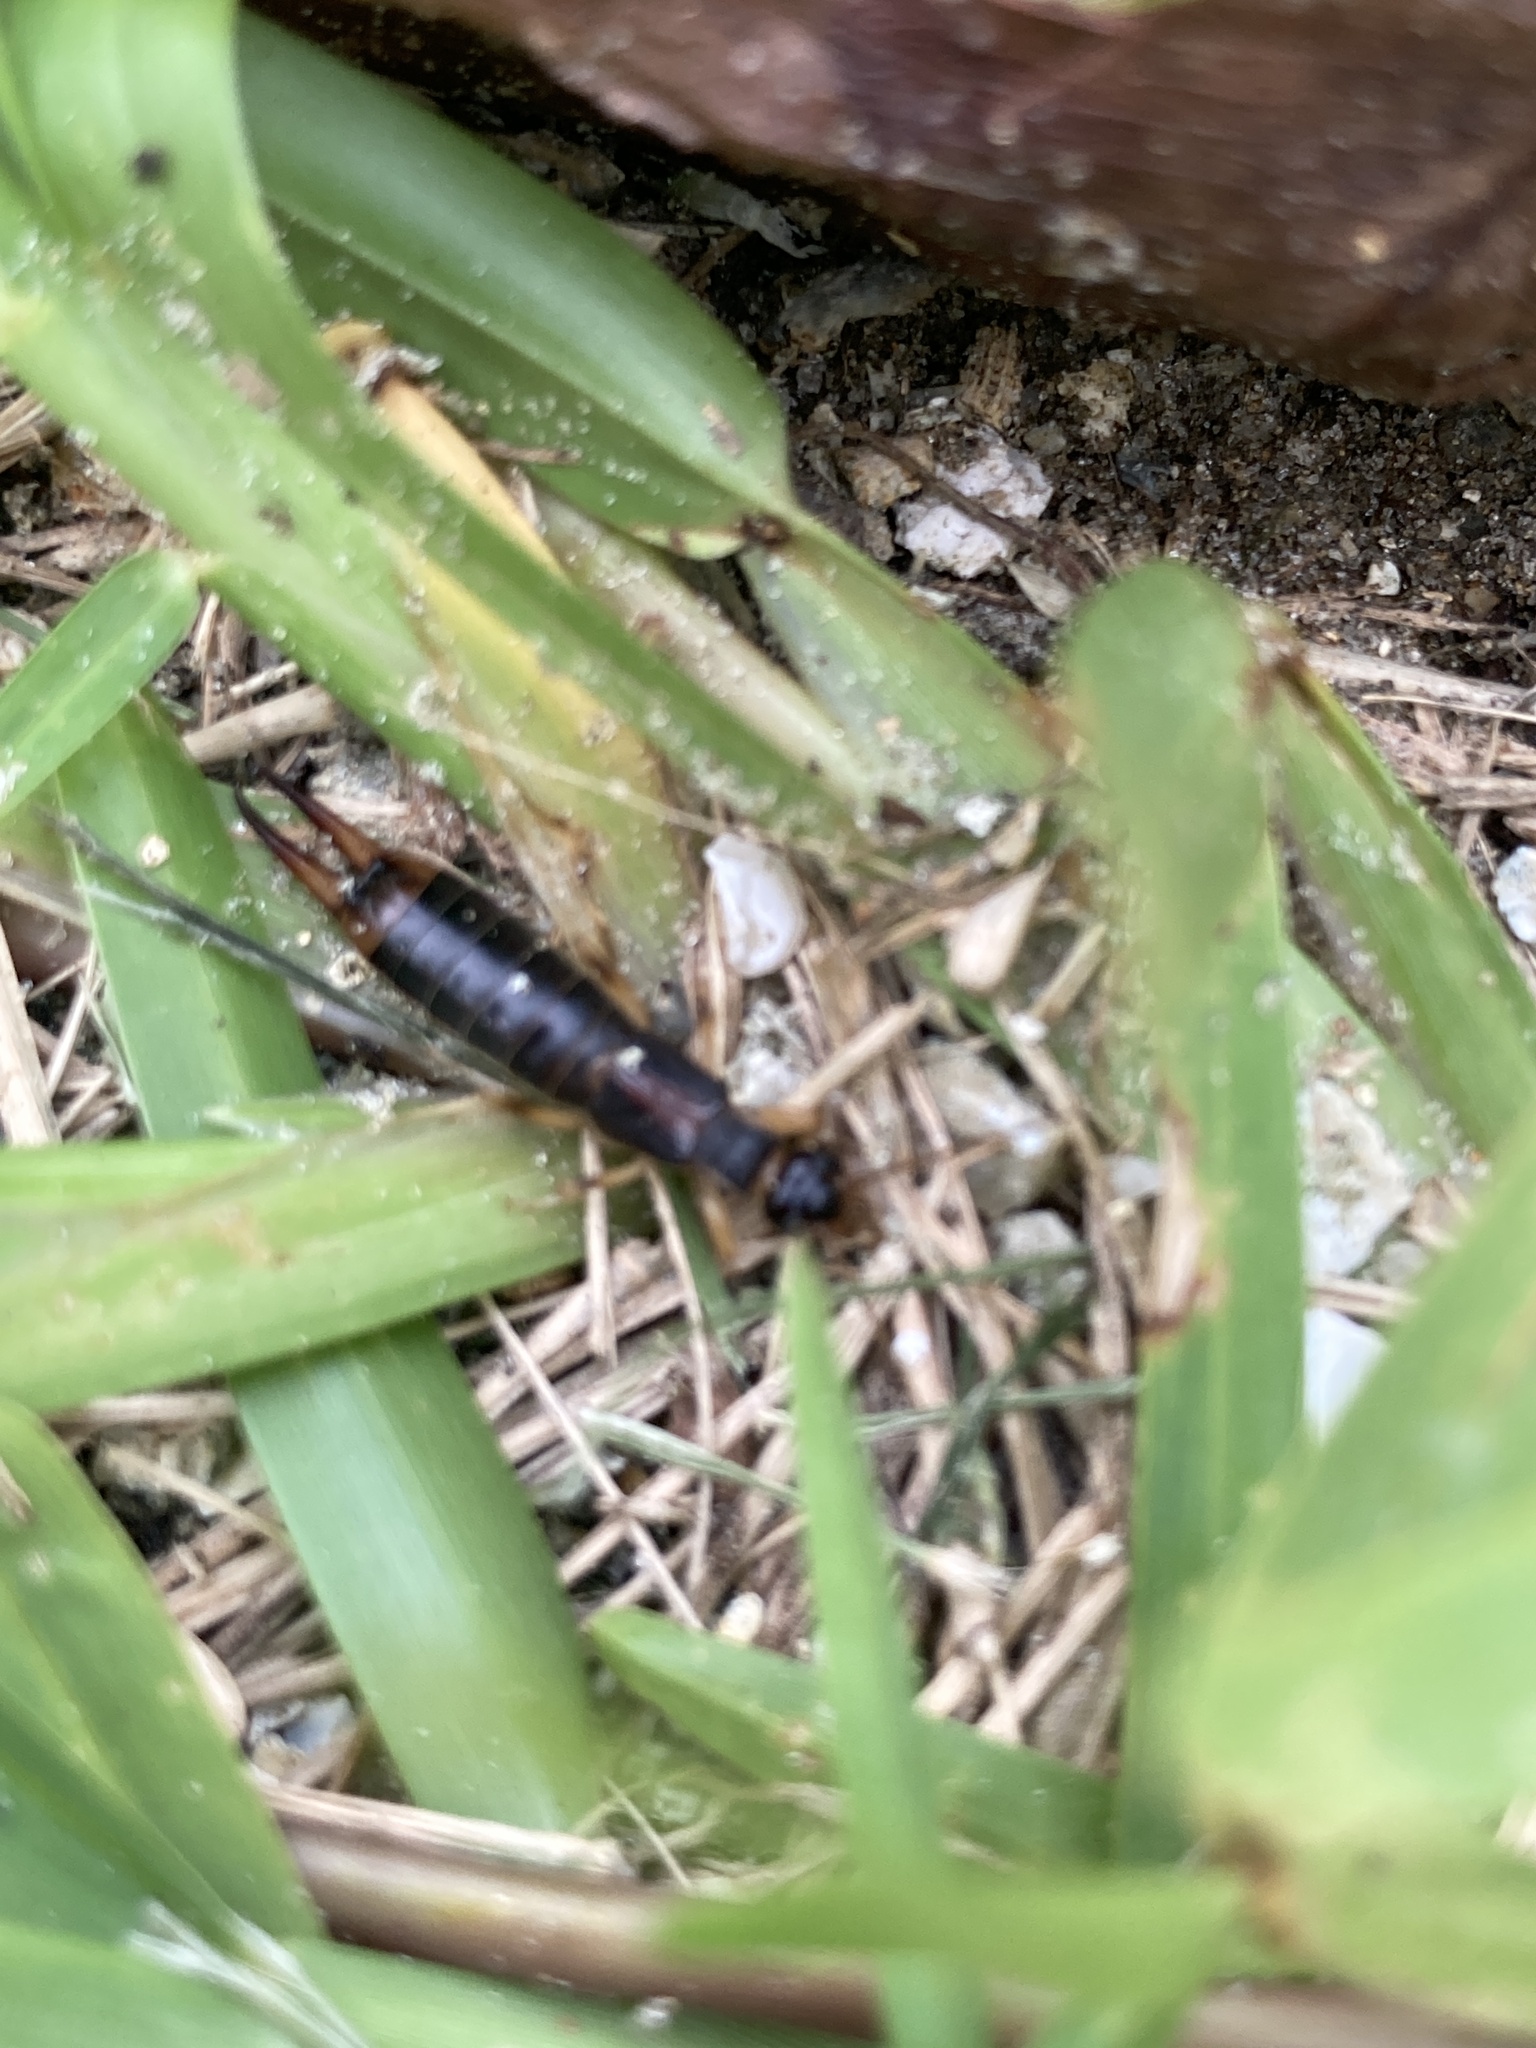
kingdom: Animalia
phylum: Arthropoda
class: Insecta
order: Dermaptera
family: Labiduridae
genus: Labidura
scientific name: Labidura riparia
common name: Striped earwig
